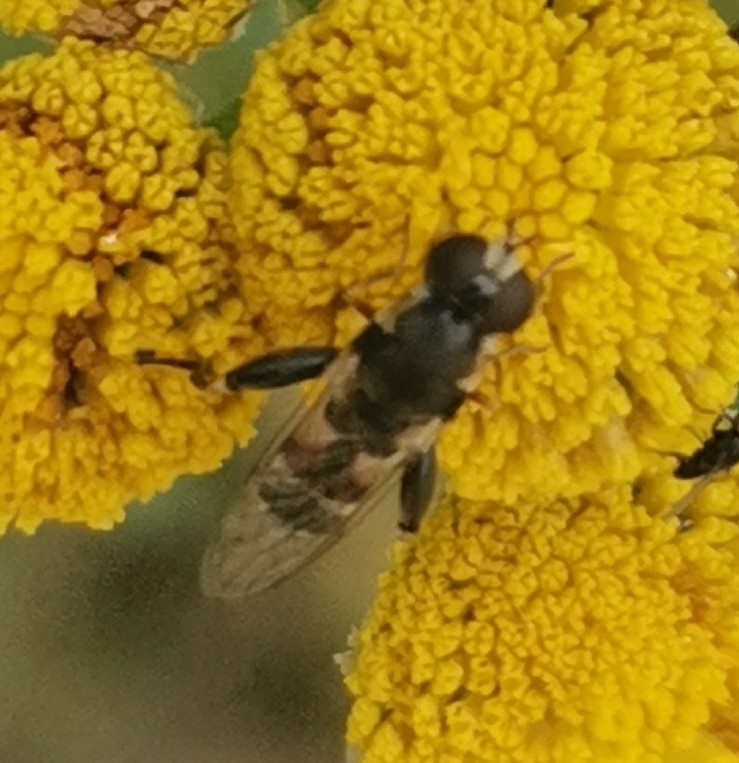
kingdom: Animalia
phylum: Arthropoda
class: Insecta
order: Diptera
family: Syrphidae
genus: Syritta
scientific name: Syritta pipiens
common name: Hover fly
